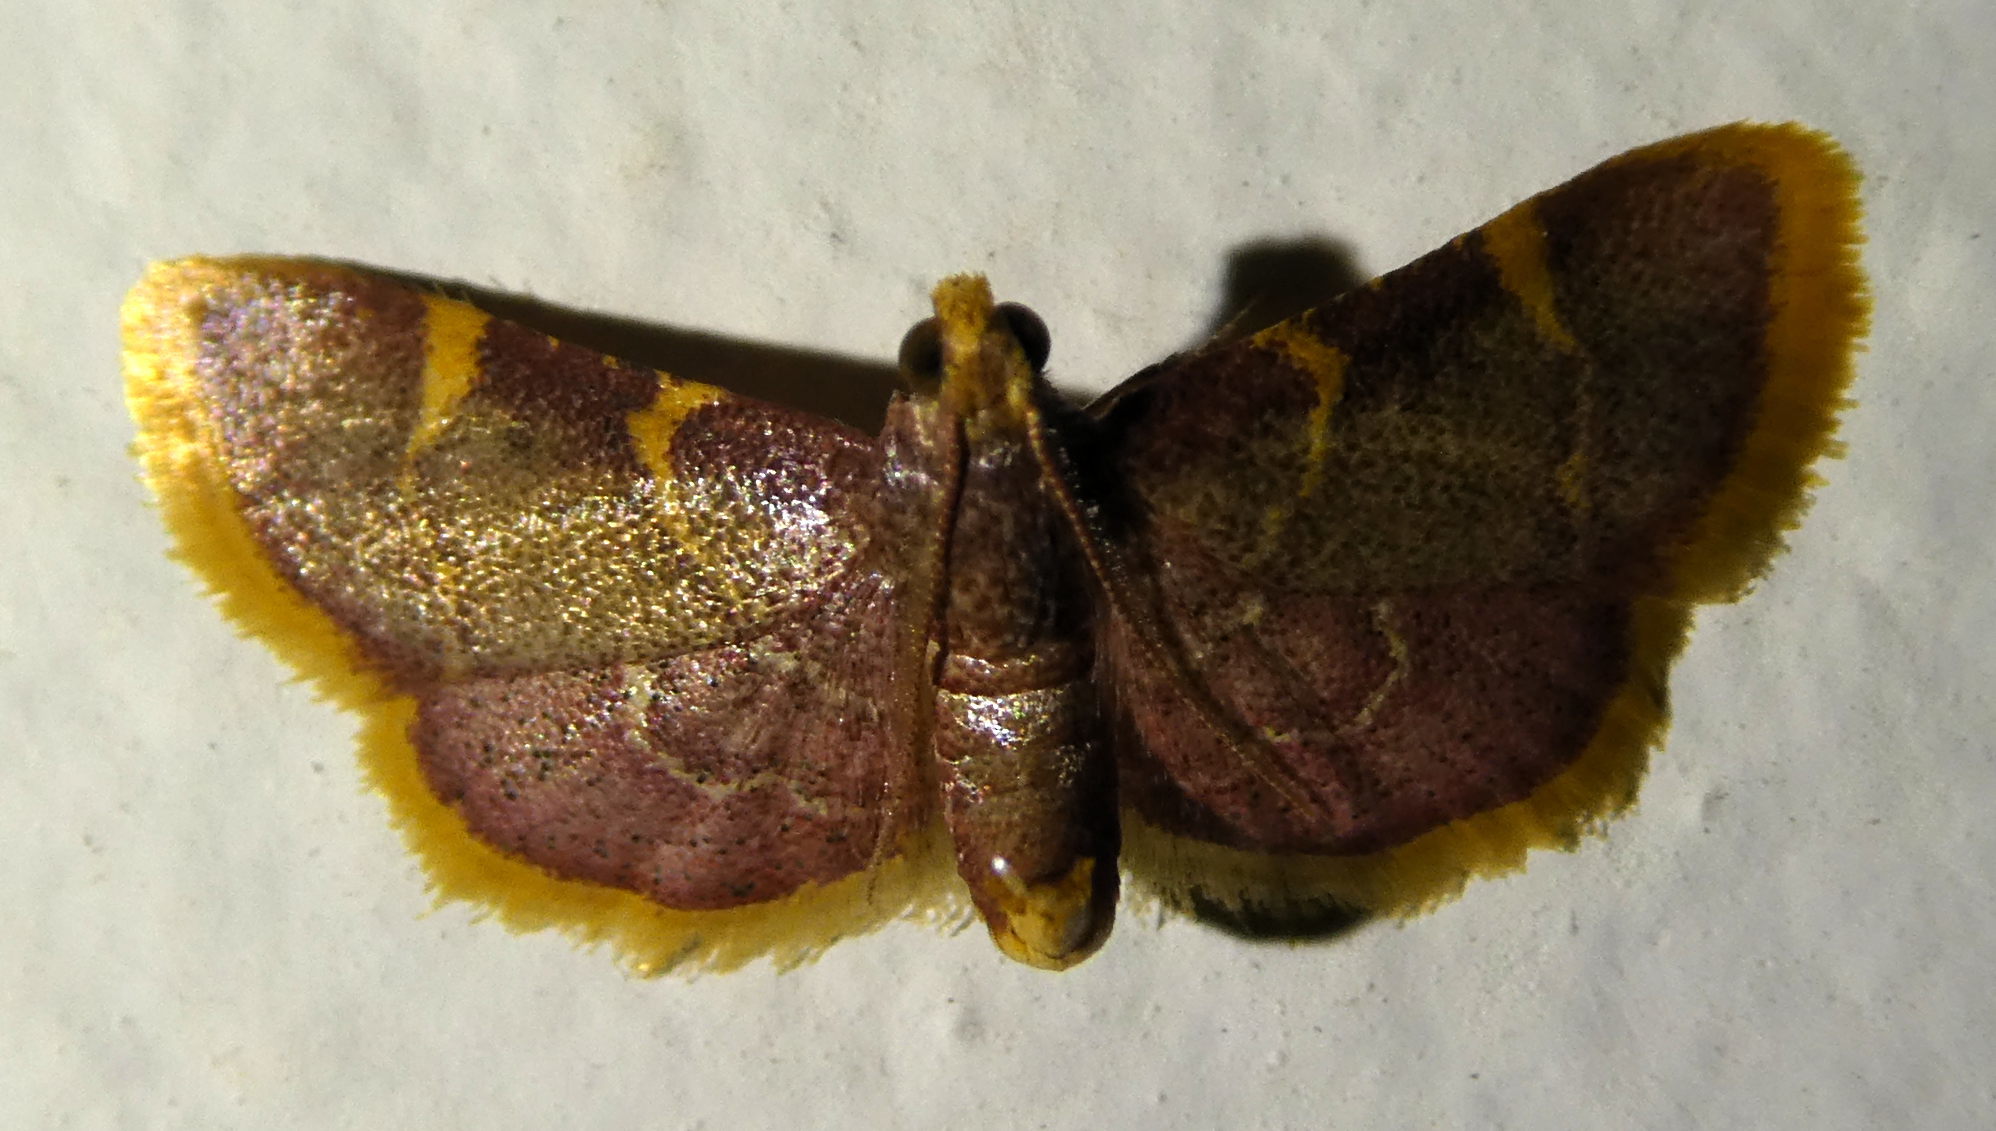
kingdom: Animalia
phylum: Arthropoda
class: Insecta
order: Lepidoptera
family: Pyralidae
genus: Hypsopygia
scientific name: Hypsopygia costalis
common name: Gold triangle
